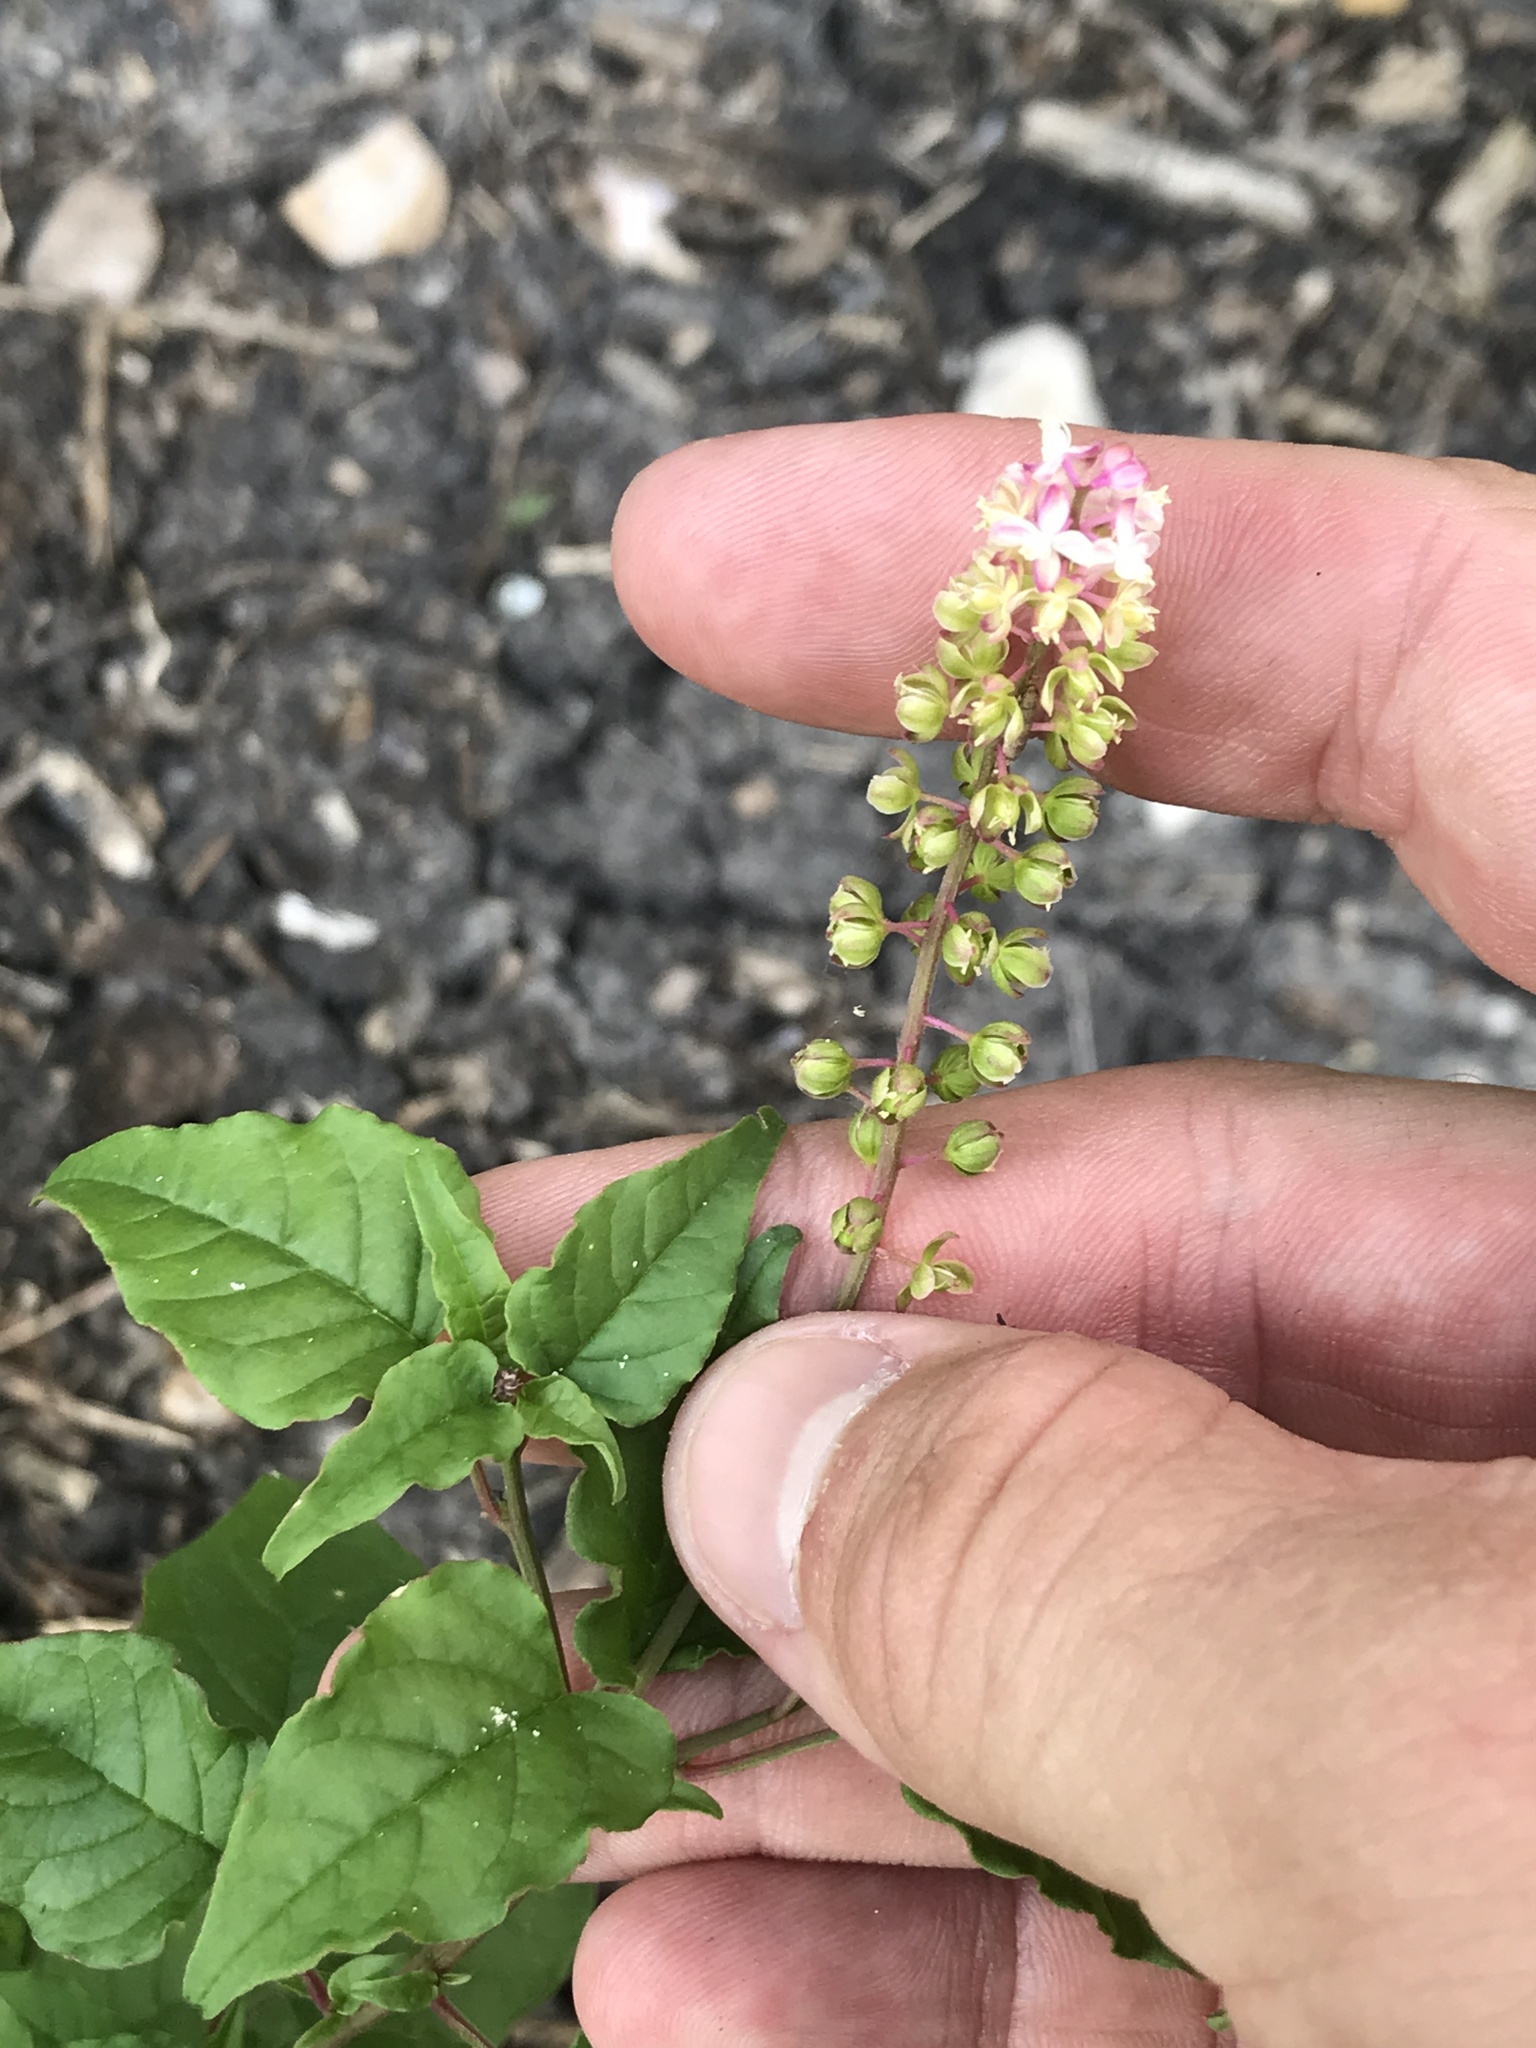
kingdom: Plantae
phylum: Tracheophyta
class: Magnoliopsida
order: Caryophyllales
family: Phytolaccaceae
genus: Rivina
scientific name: Rivina humilis
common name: Rougeplant
